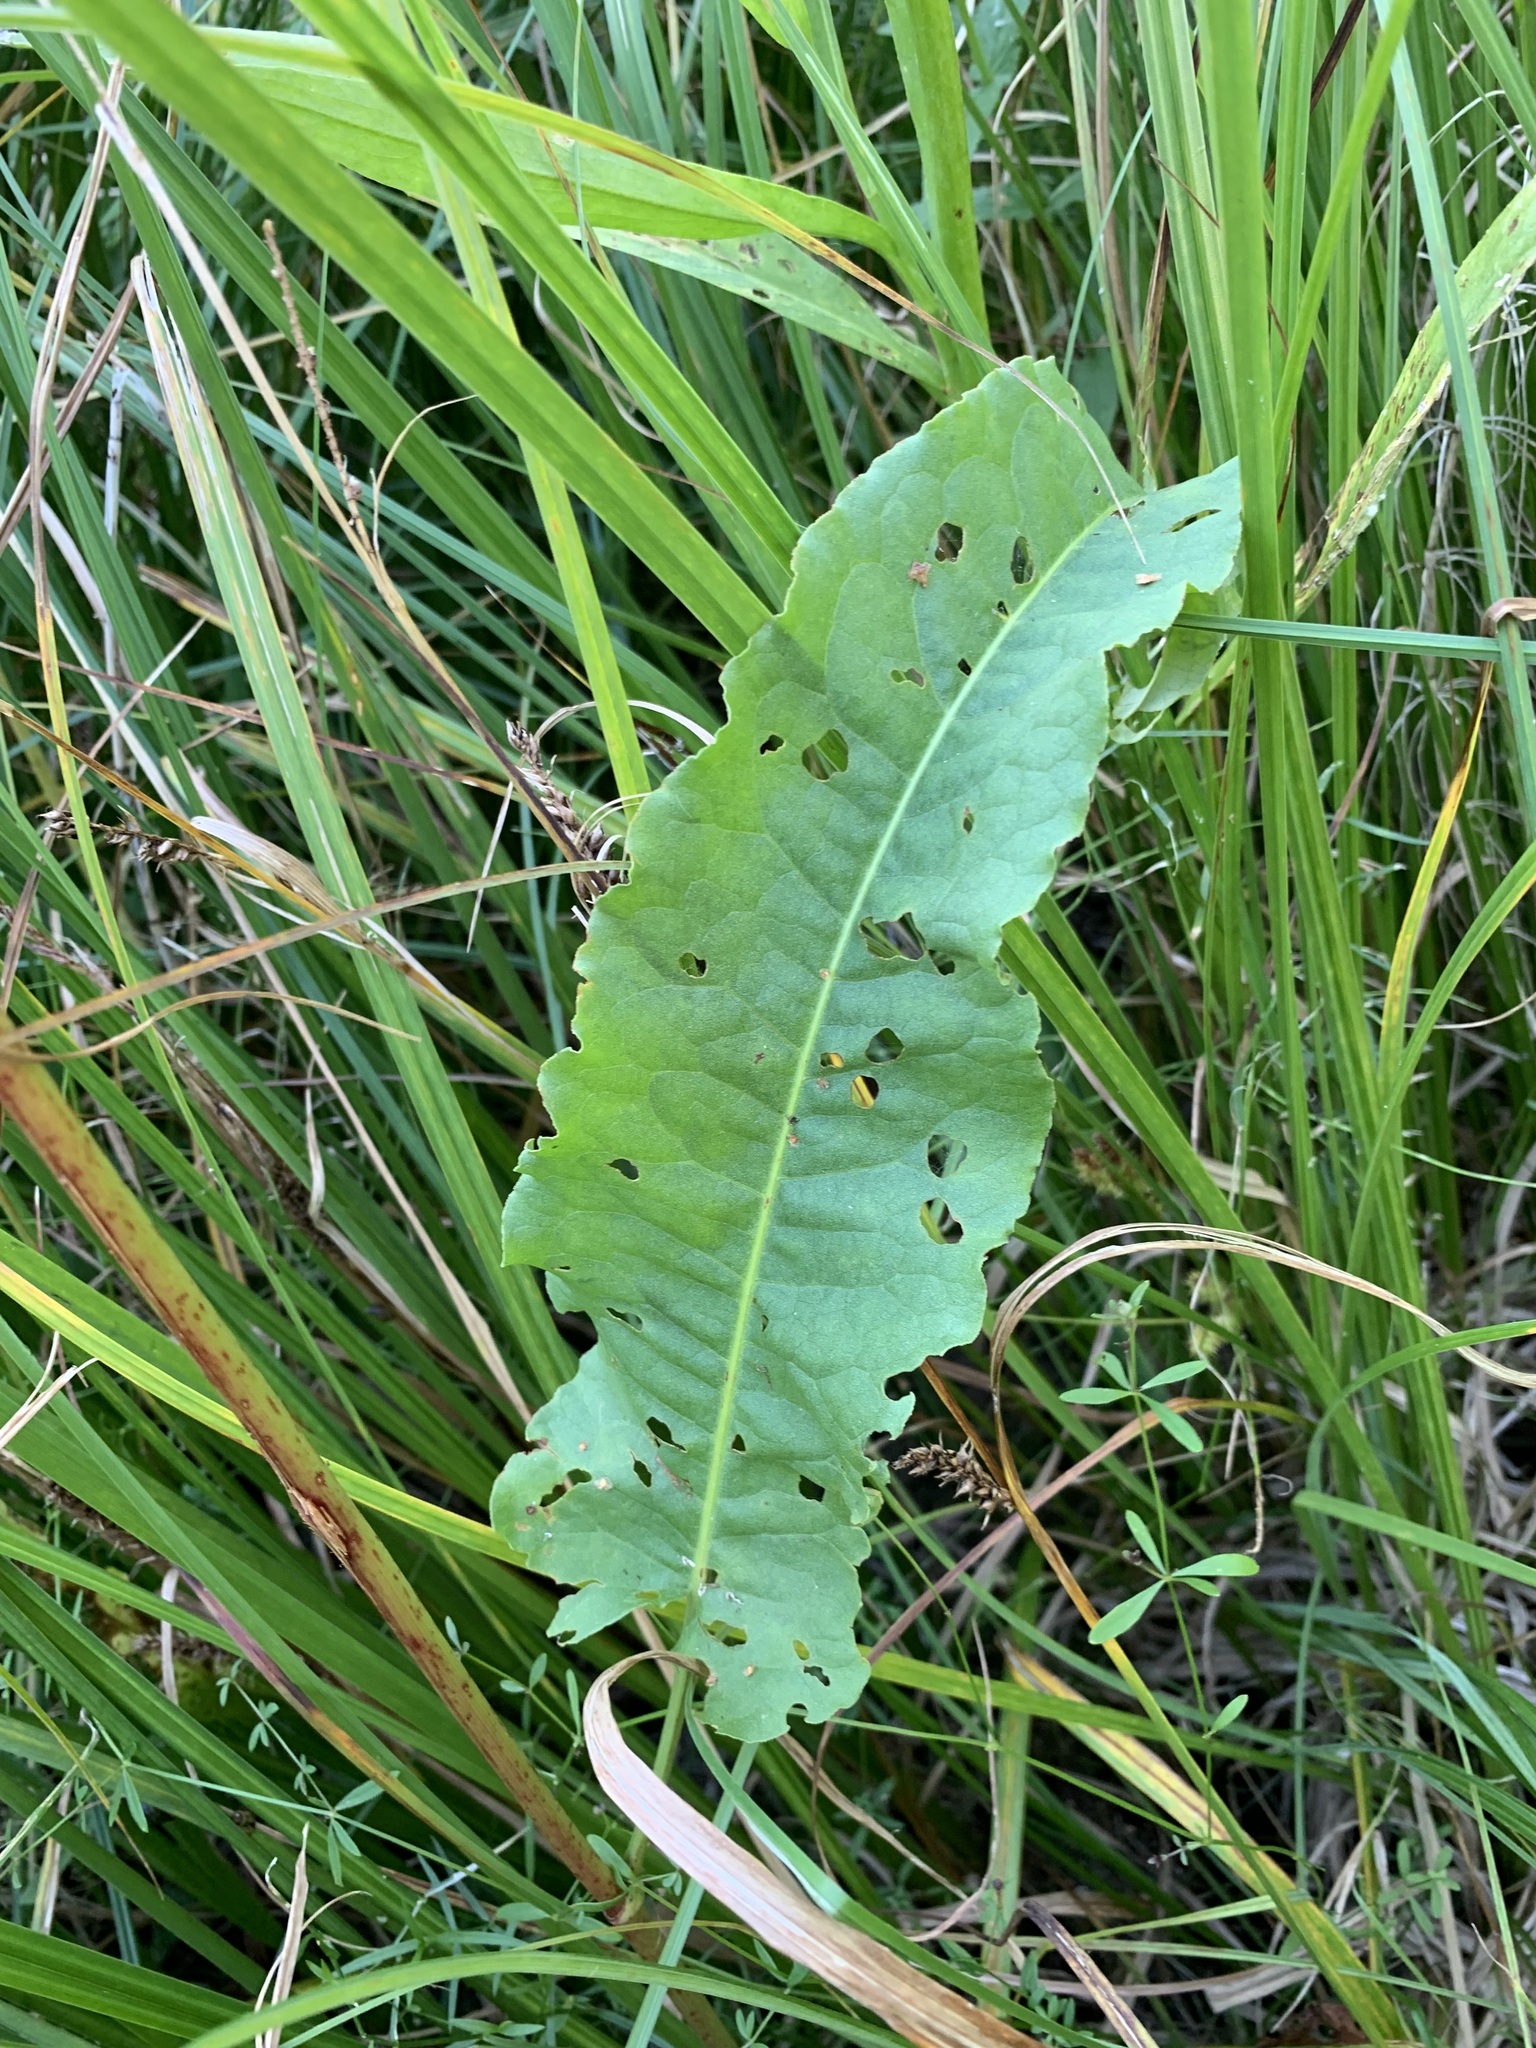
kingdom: Plantae
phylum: Tracheophyta
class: Magnoliopsida
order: Caryophyllales
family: Polygonaceae
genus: Rumex
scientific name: Rumex aquaticus
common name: Scottish dock
